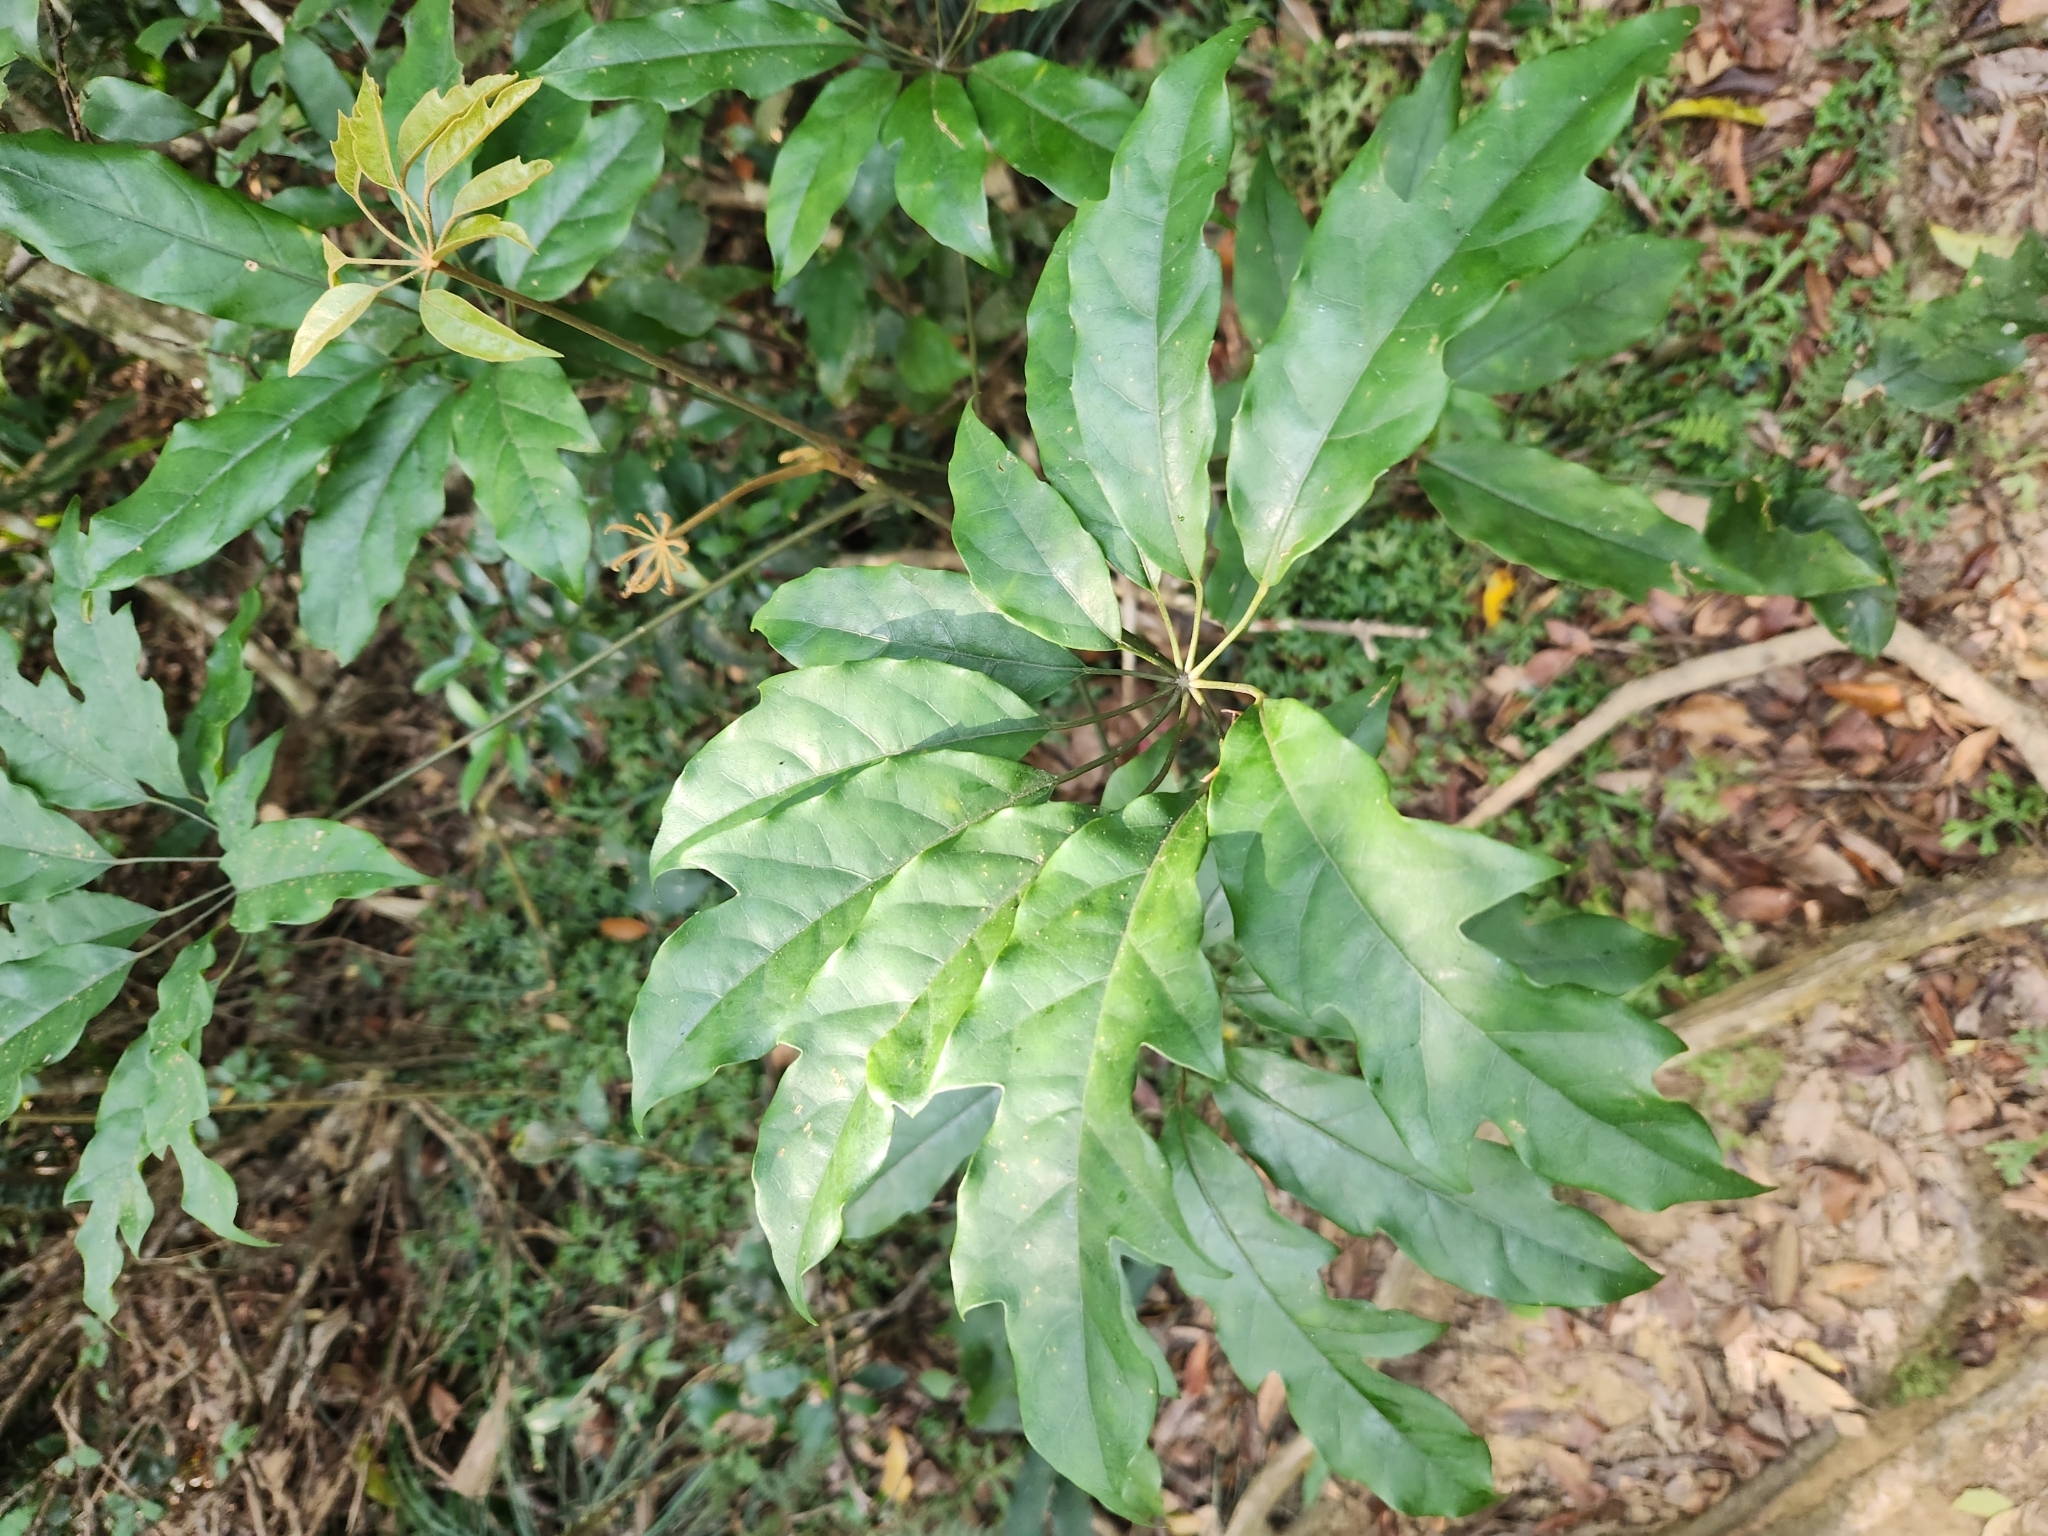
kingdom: Plantae
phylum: Tracheophyta
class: Magnoliopsida
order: Apiales
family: Araliaceae
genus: Heptapleurum
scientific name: Heptapleurum heptaphyllum
